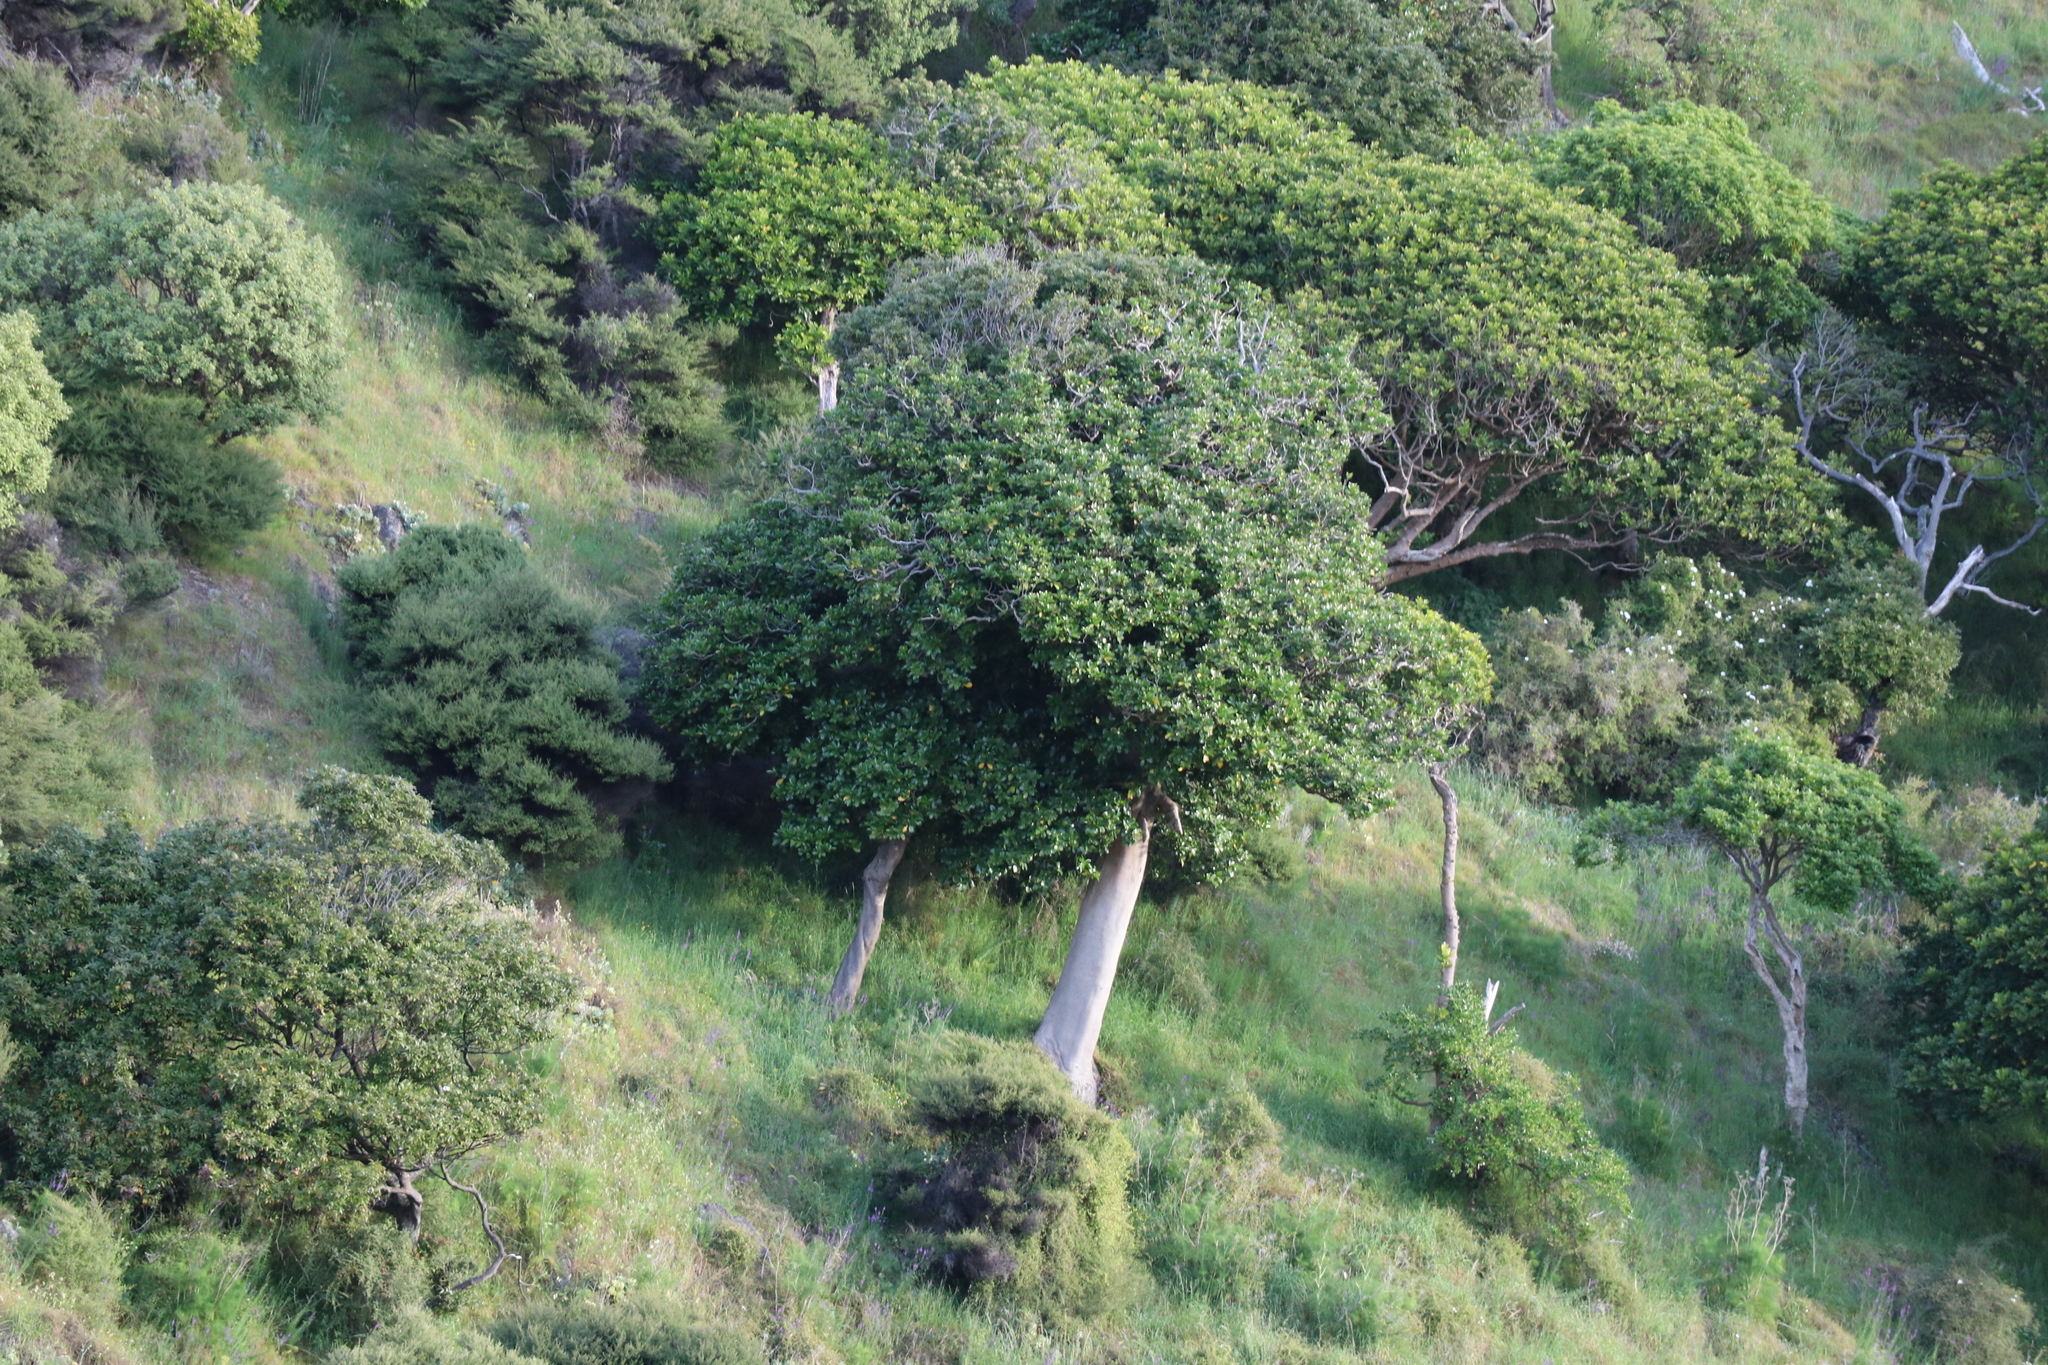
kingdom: Plantae
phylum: Tracheophyta
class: Magnoliopsida
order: Cucurbitales
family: Corynocarpaceae
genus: Corynocarpus
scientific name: Corynocarpus laevigatus
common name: New zealand laurel
